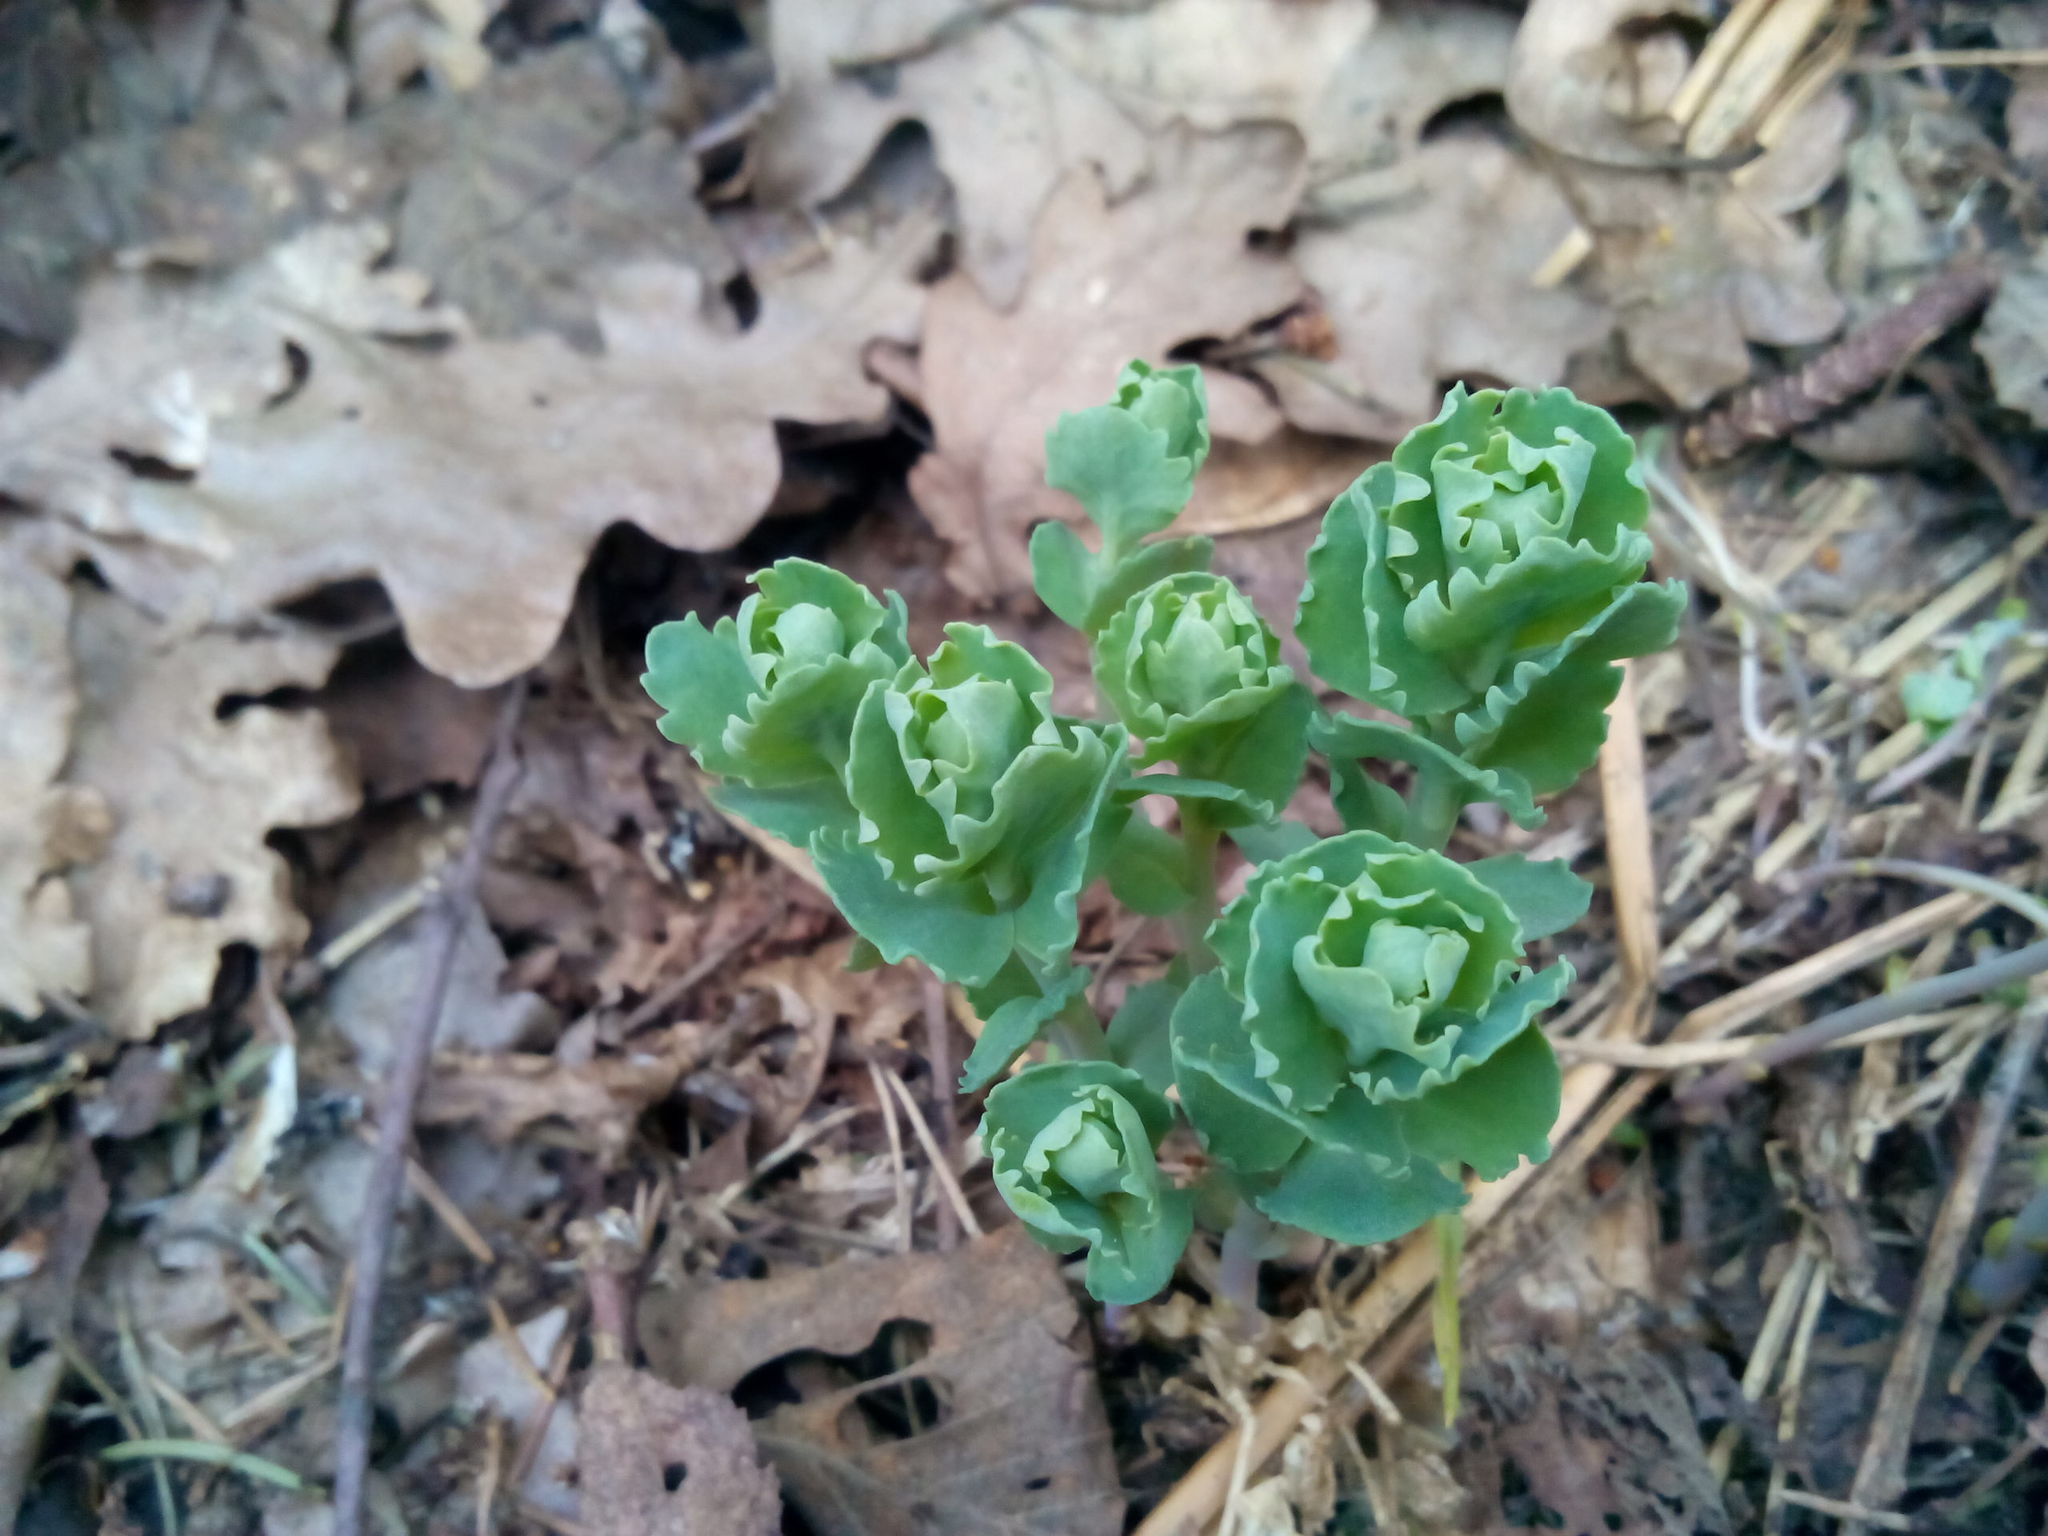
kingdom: Plantae
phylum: Tracheophyta
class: Magnoliopsida
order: Saxifragales
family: Crassulaceae
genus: Hylotelephium
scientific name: Hylotelephium telephium
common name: Live-forever
